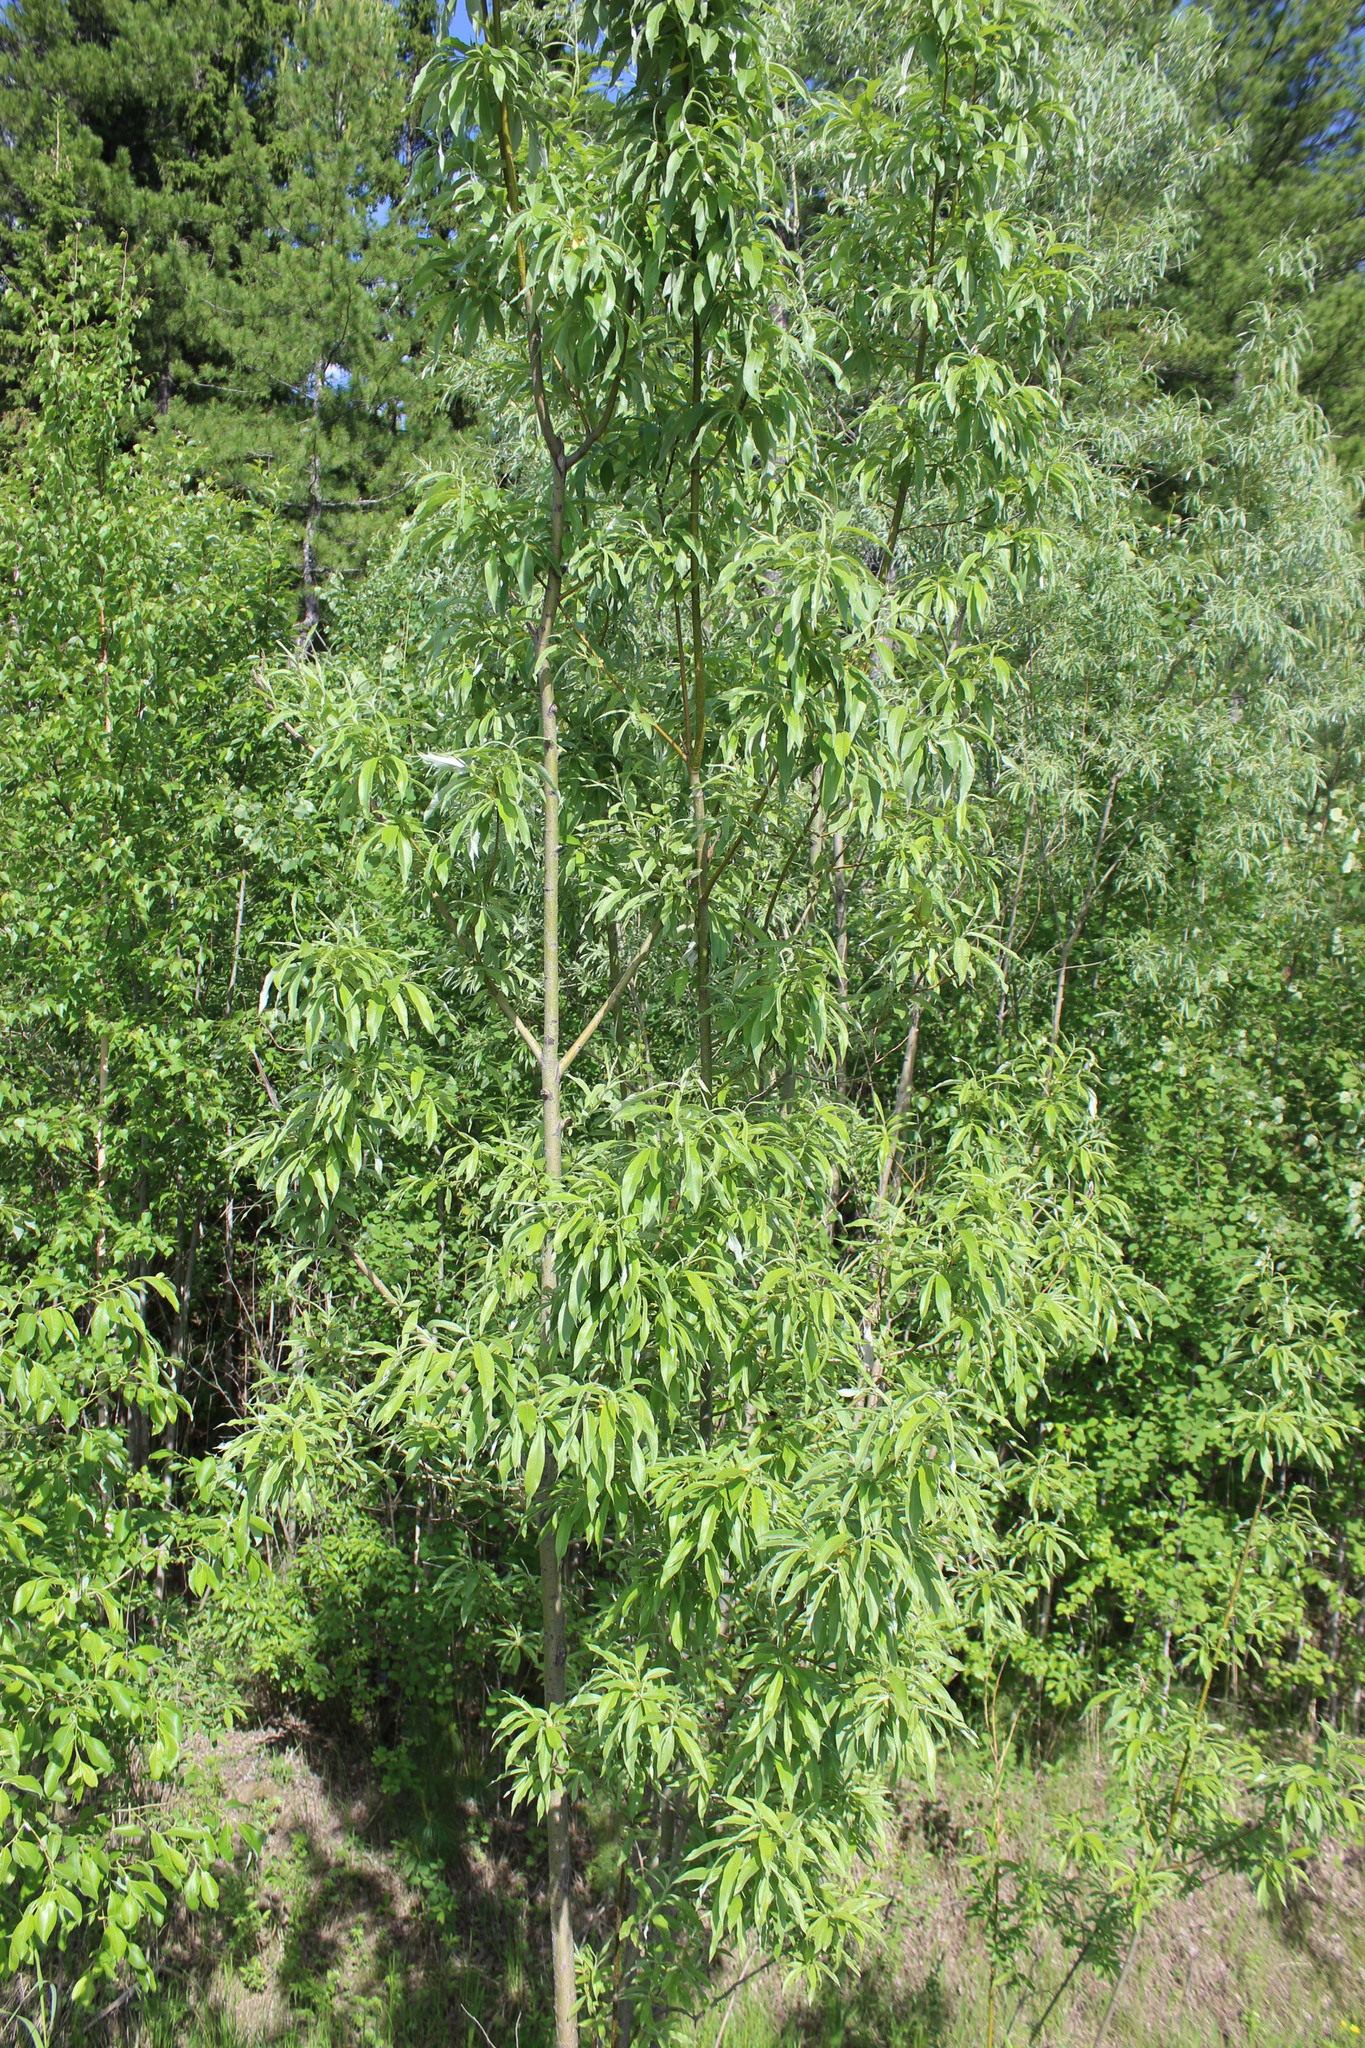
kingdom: Plantae
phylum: Tracheophyta
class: Magnoliopsida
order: Malpighiales
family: Salicaceae
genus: Salix
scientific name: Salix gmelinii
